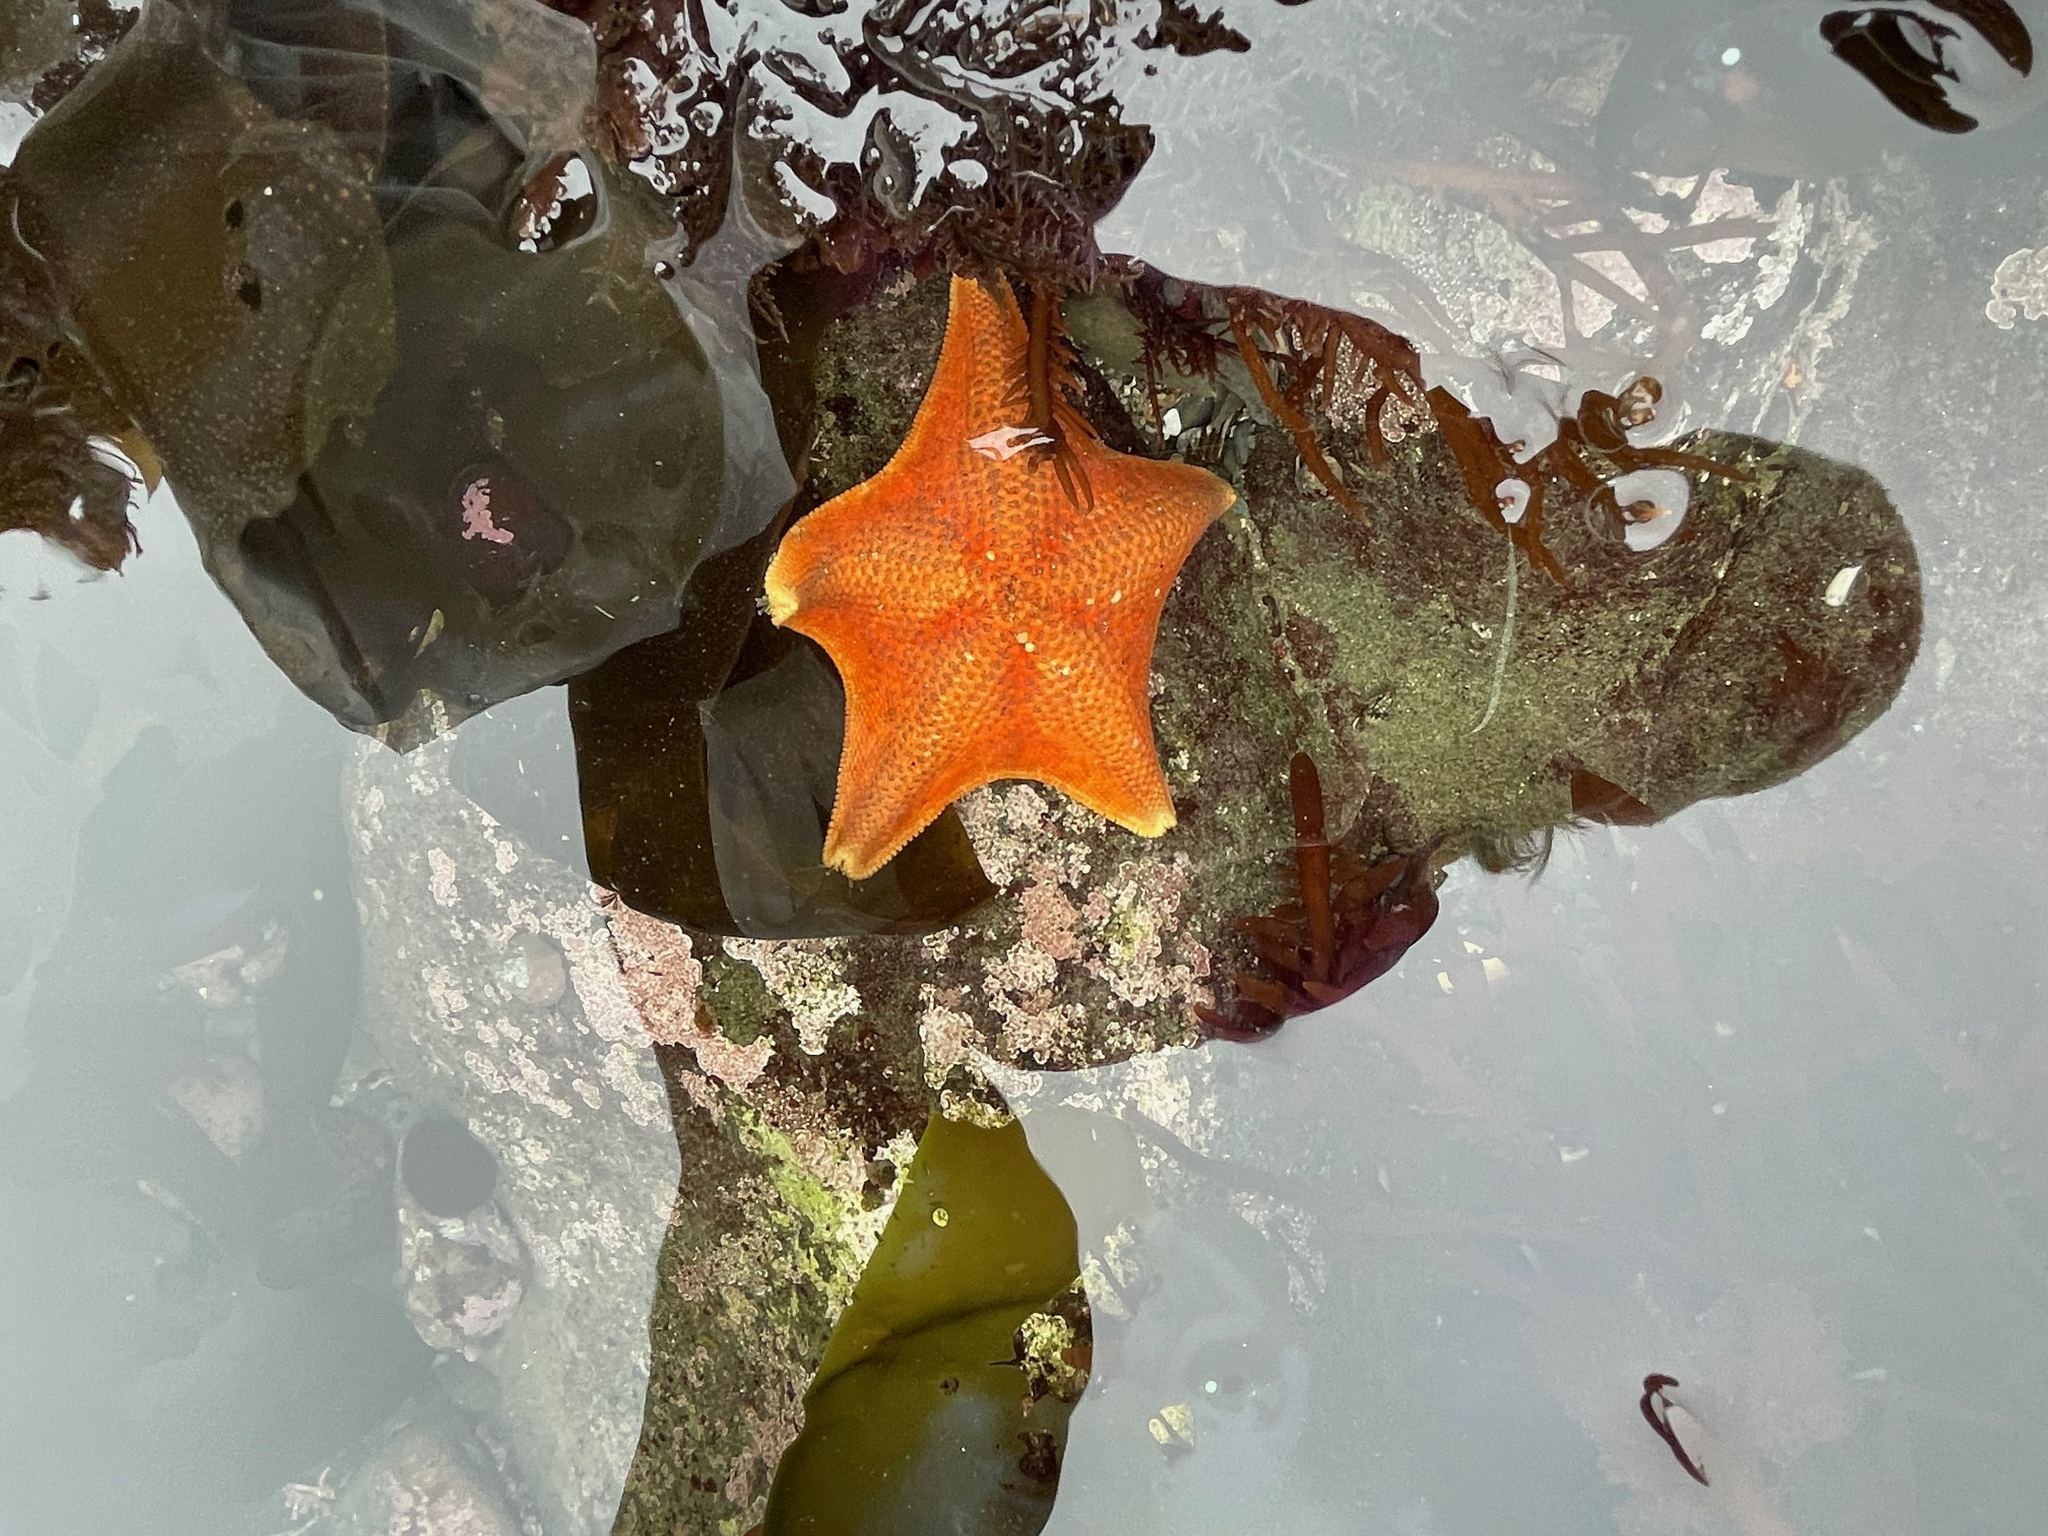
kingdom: Animalia
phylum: Echinodermata
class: Asteroidea
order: Valvatida
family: Asterinidae
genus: Patiria
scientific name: Patiria miniata
